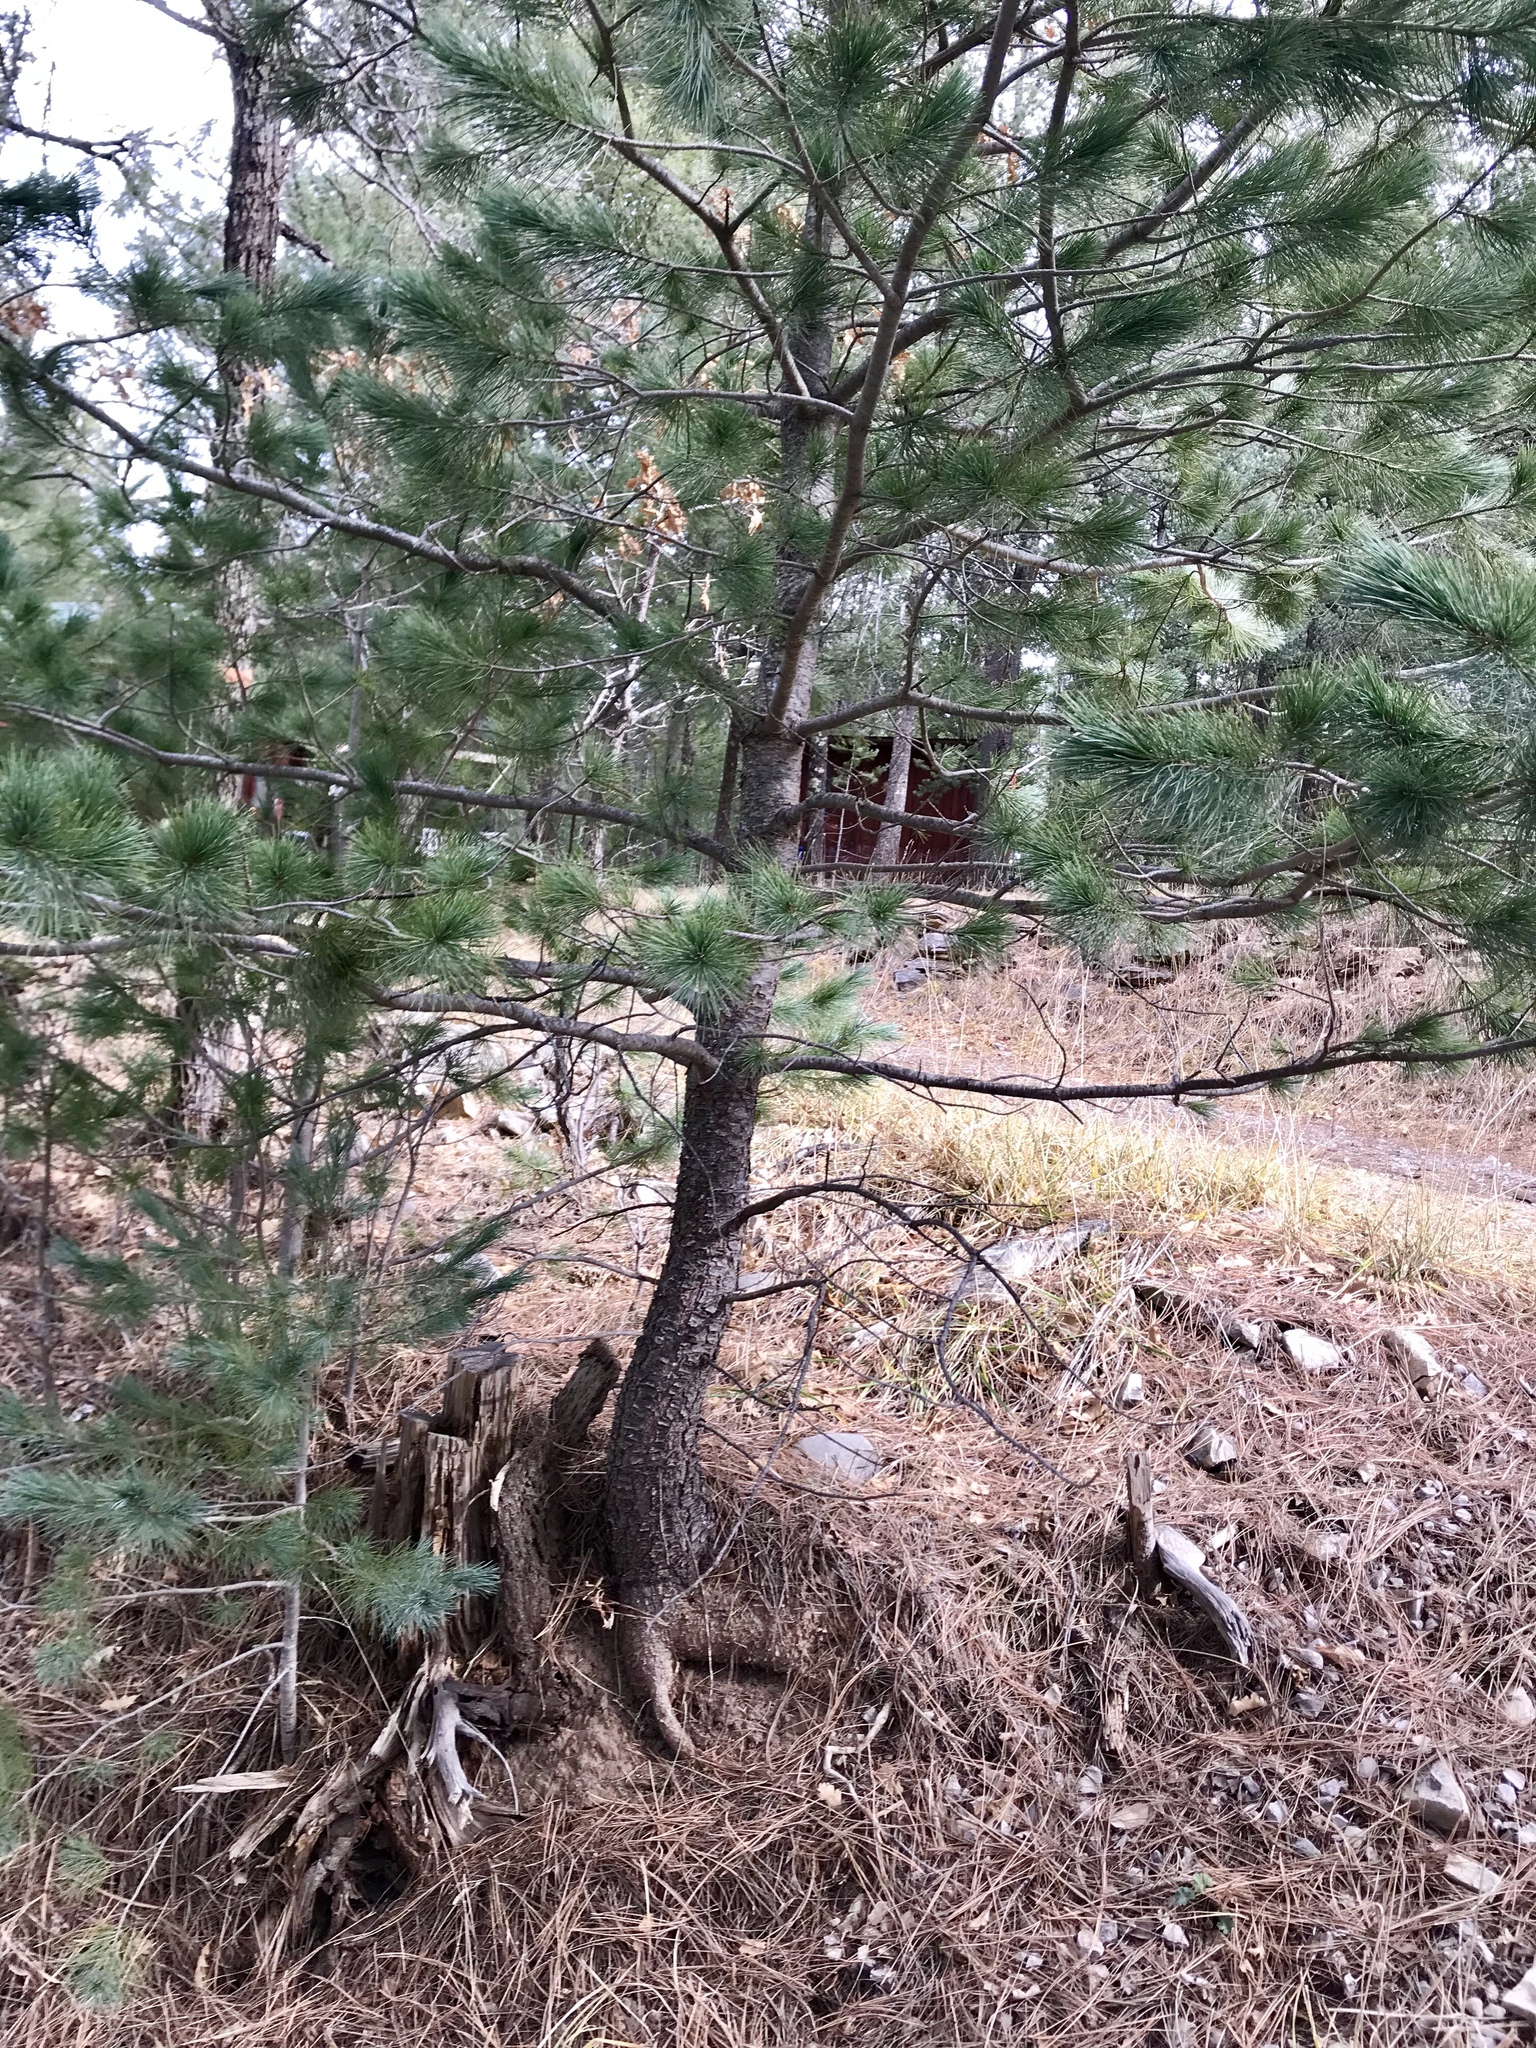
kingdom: Plantae
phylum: Tracheophyta
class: Pinopsida
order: Pinales
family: Pinaceae
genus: Pinus
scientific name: Pinus strobiformis
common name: Southwestern white pine
